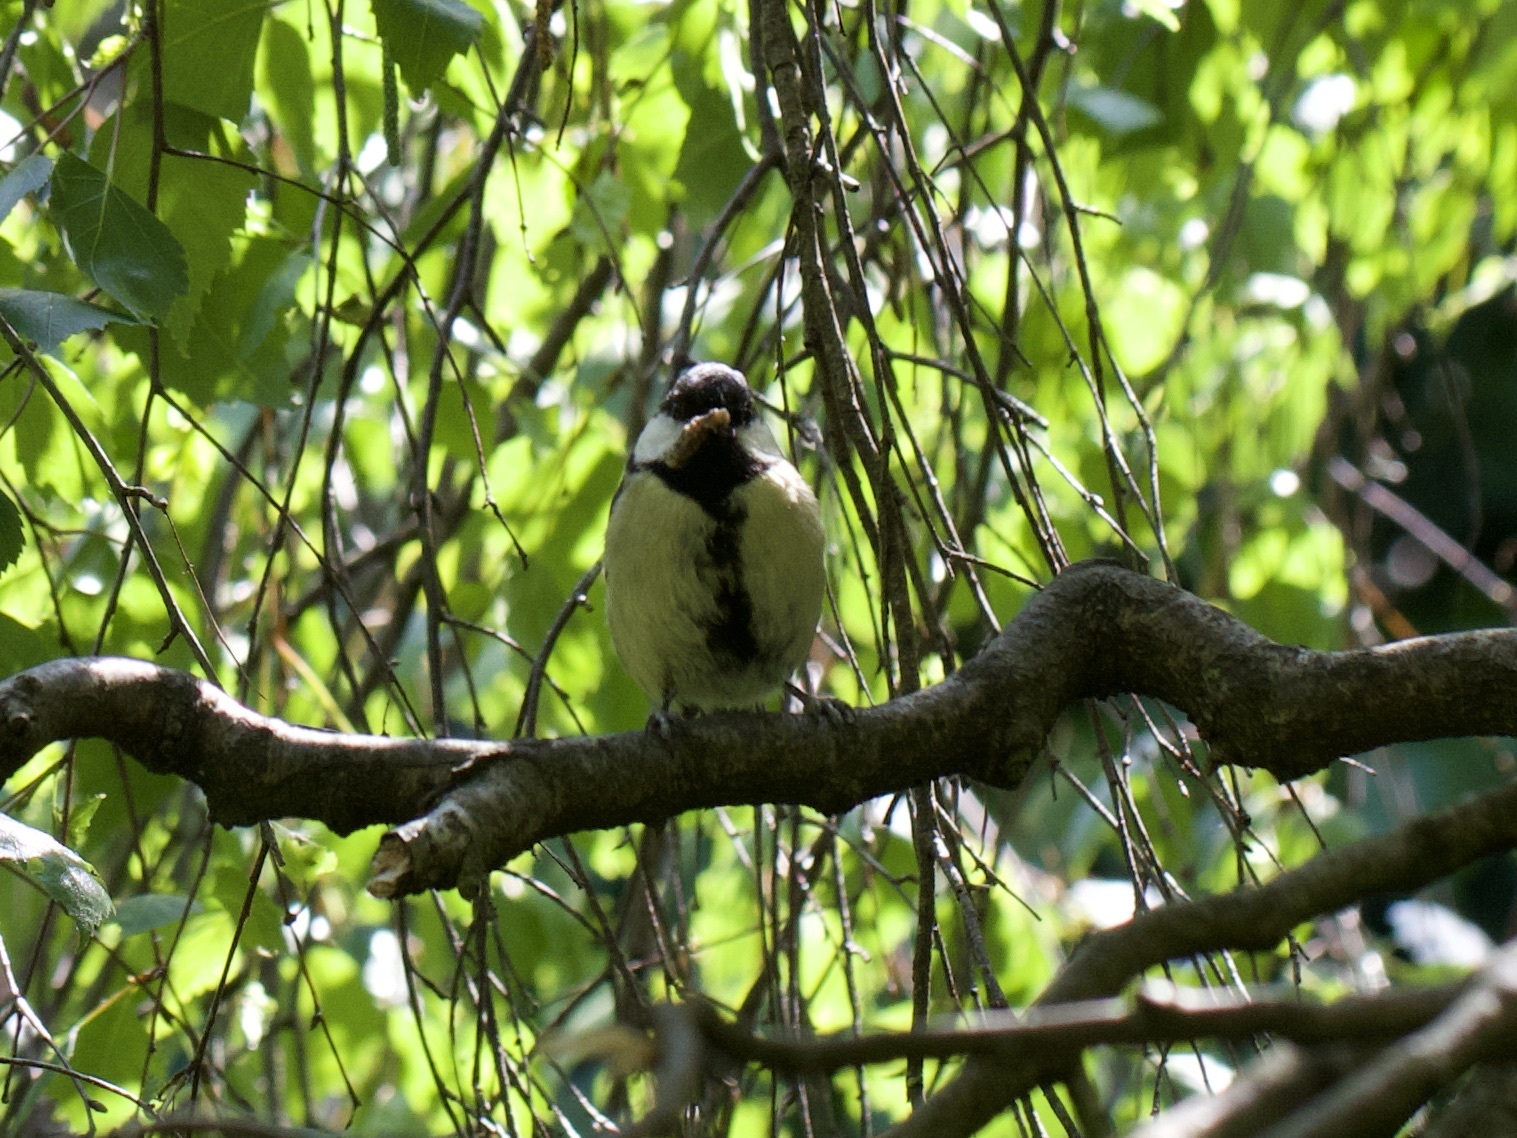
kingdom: Animalia
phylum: Chordata
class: Aves
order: Passeriformes
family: Paridae
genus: Parus
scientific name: Parus major
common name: Great tit
